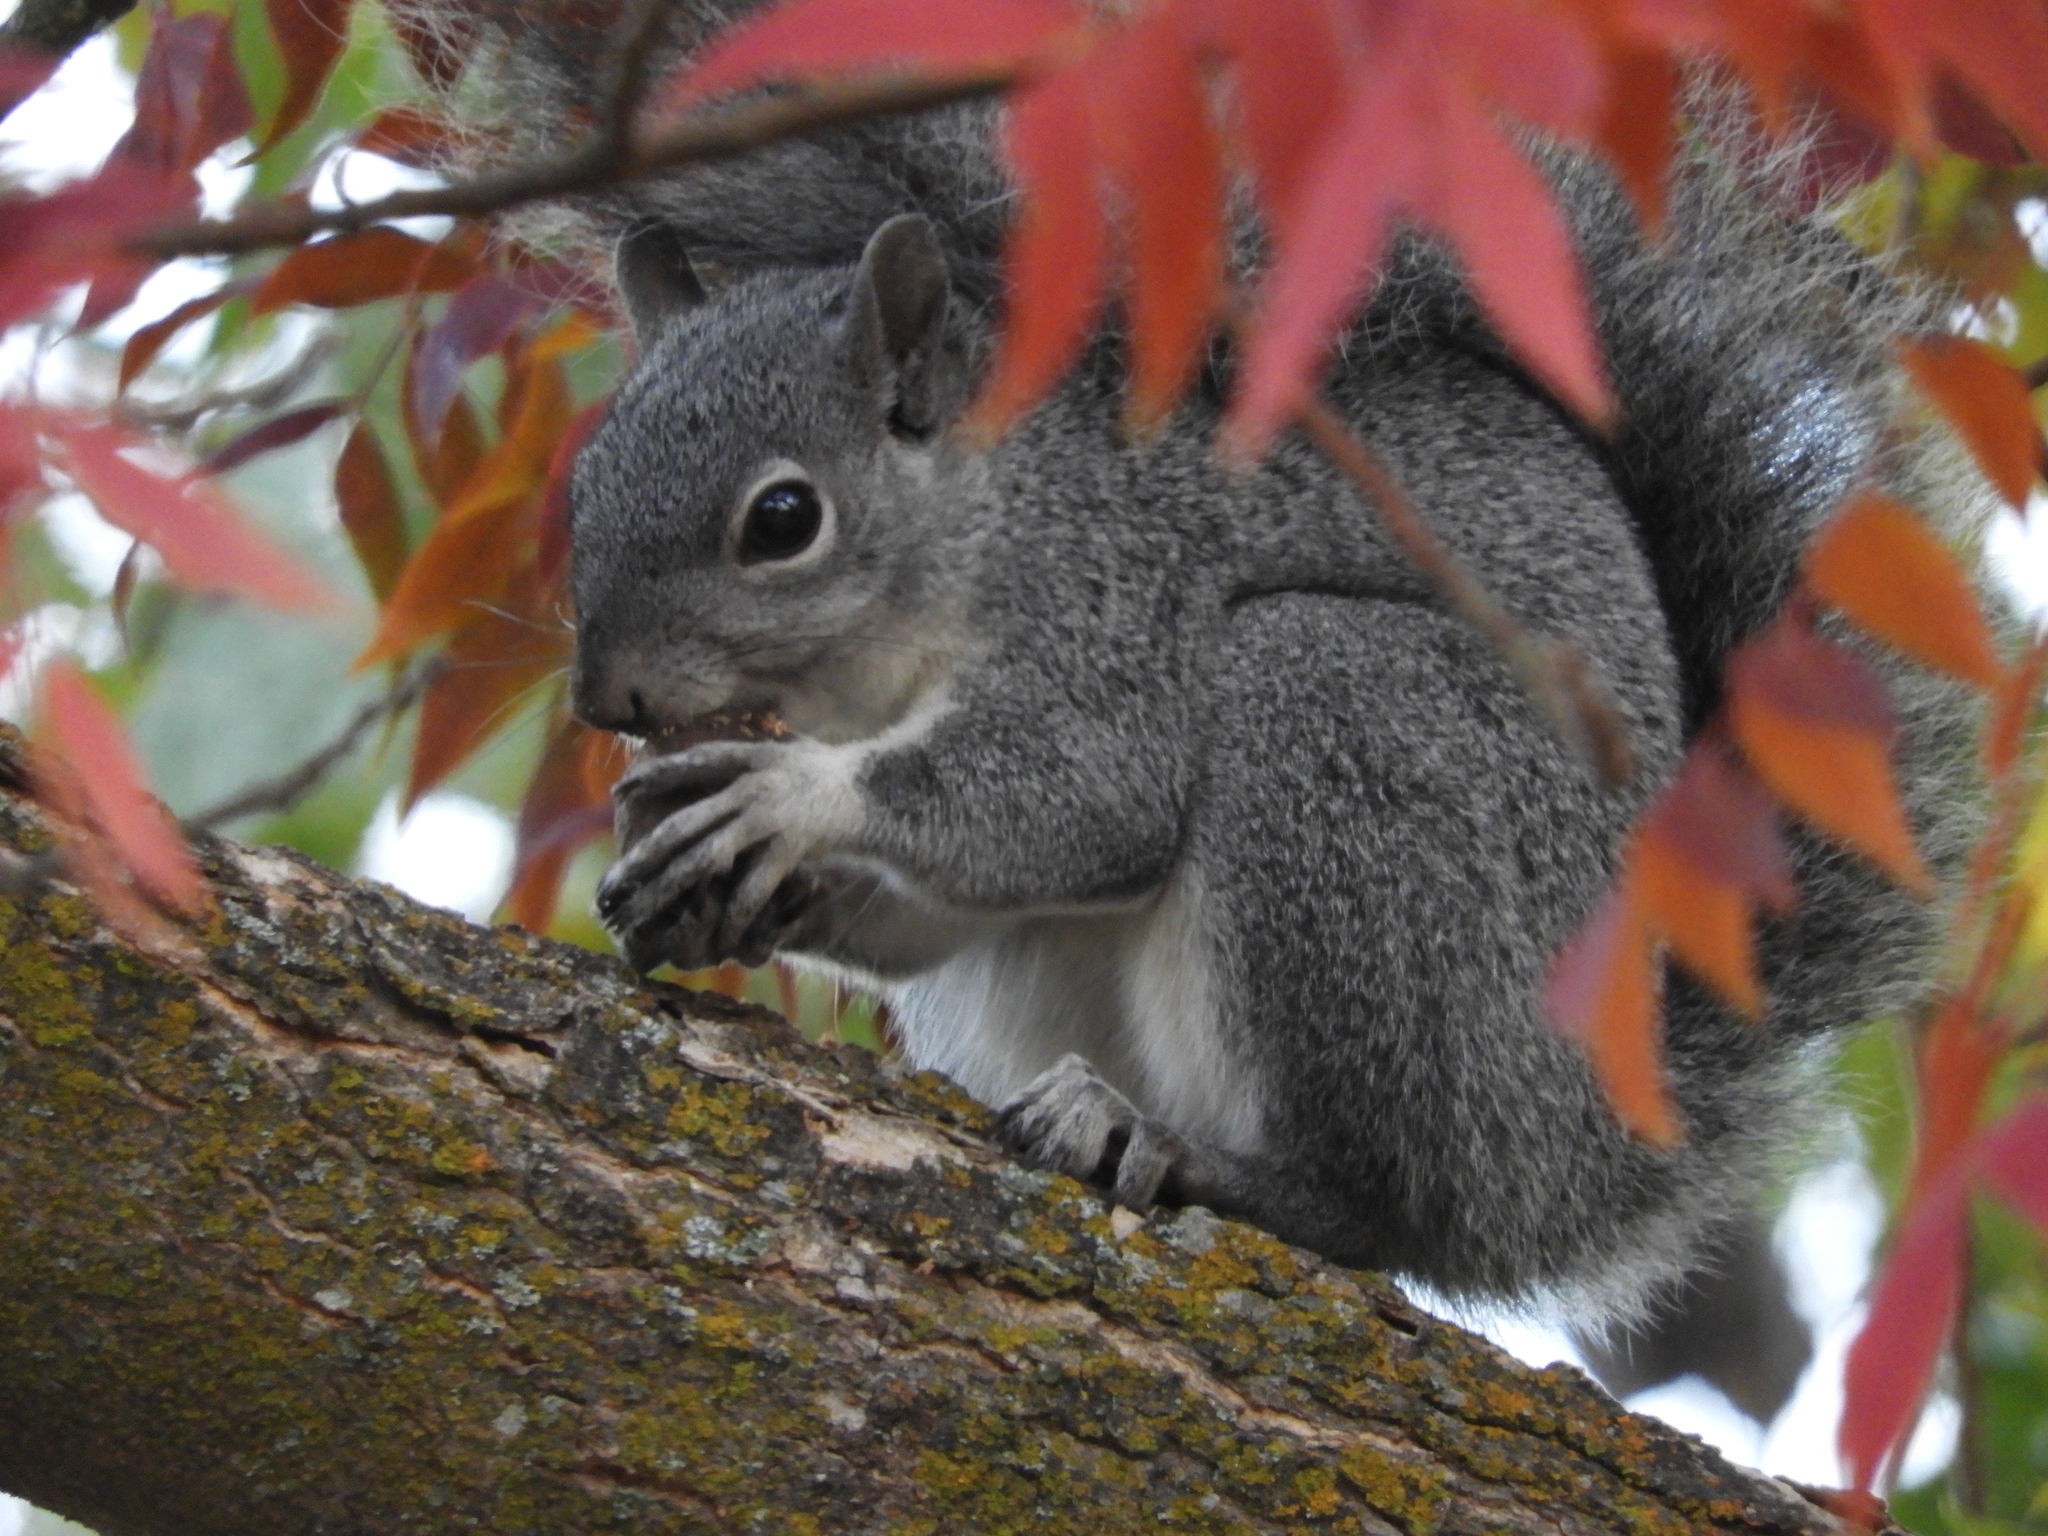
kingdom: Animalia
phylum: Chordata
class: Mammalia
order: Rodentia
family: Sciuridae
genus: Sciurus
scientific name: Sciurus griseus
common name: Western gray squirrel
